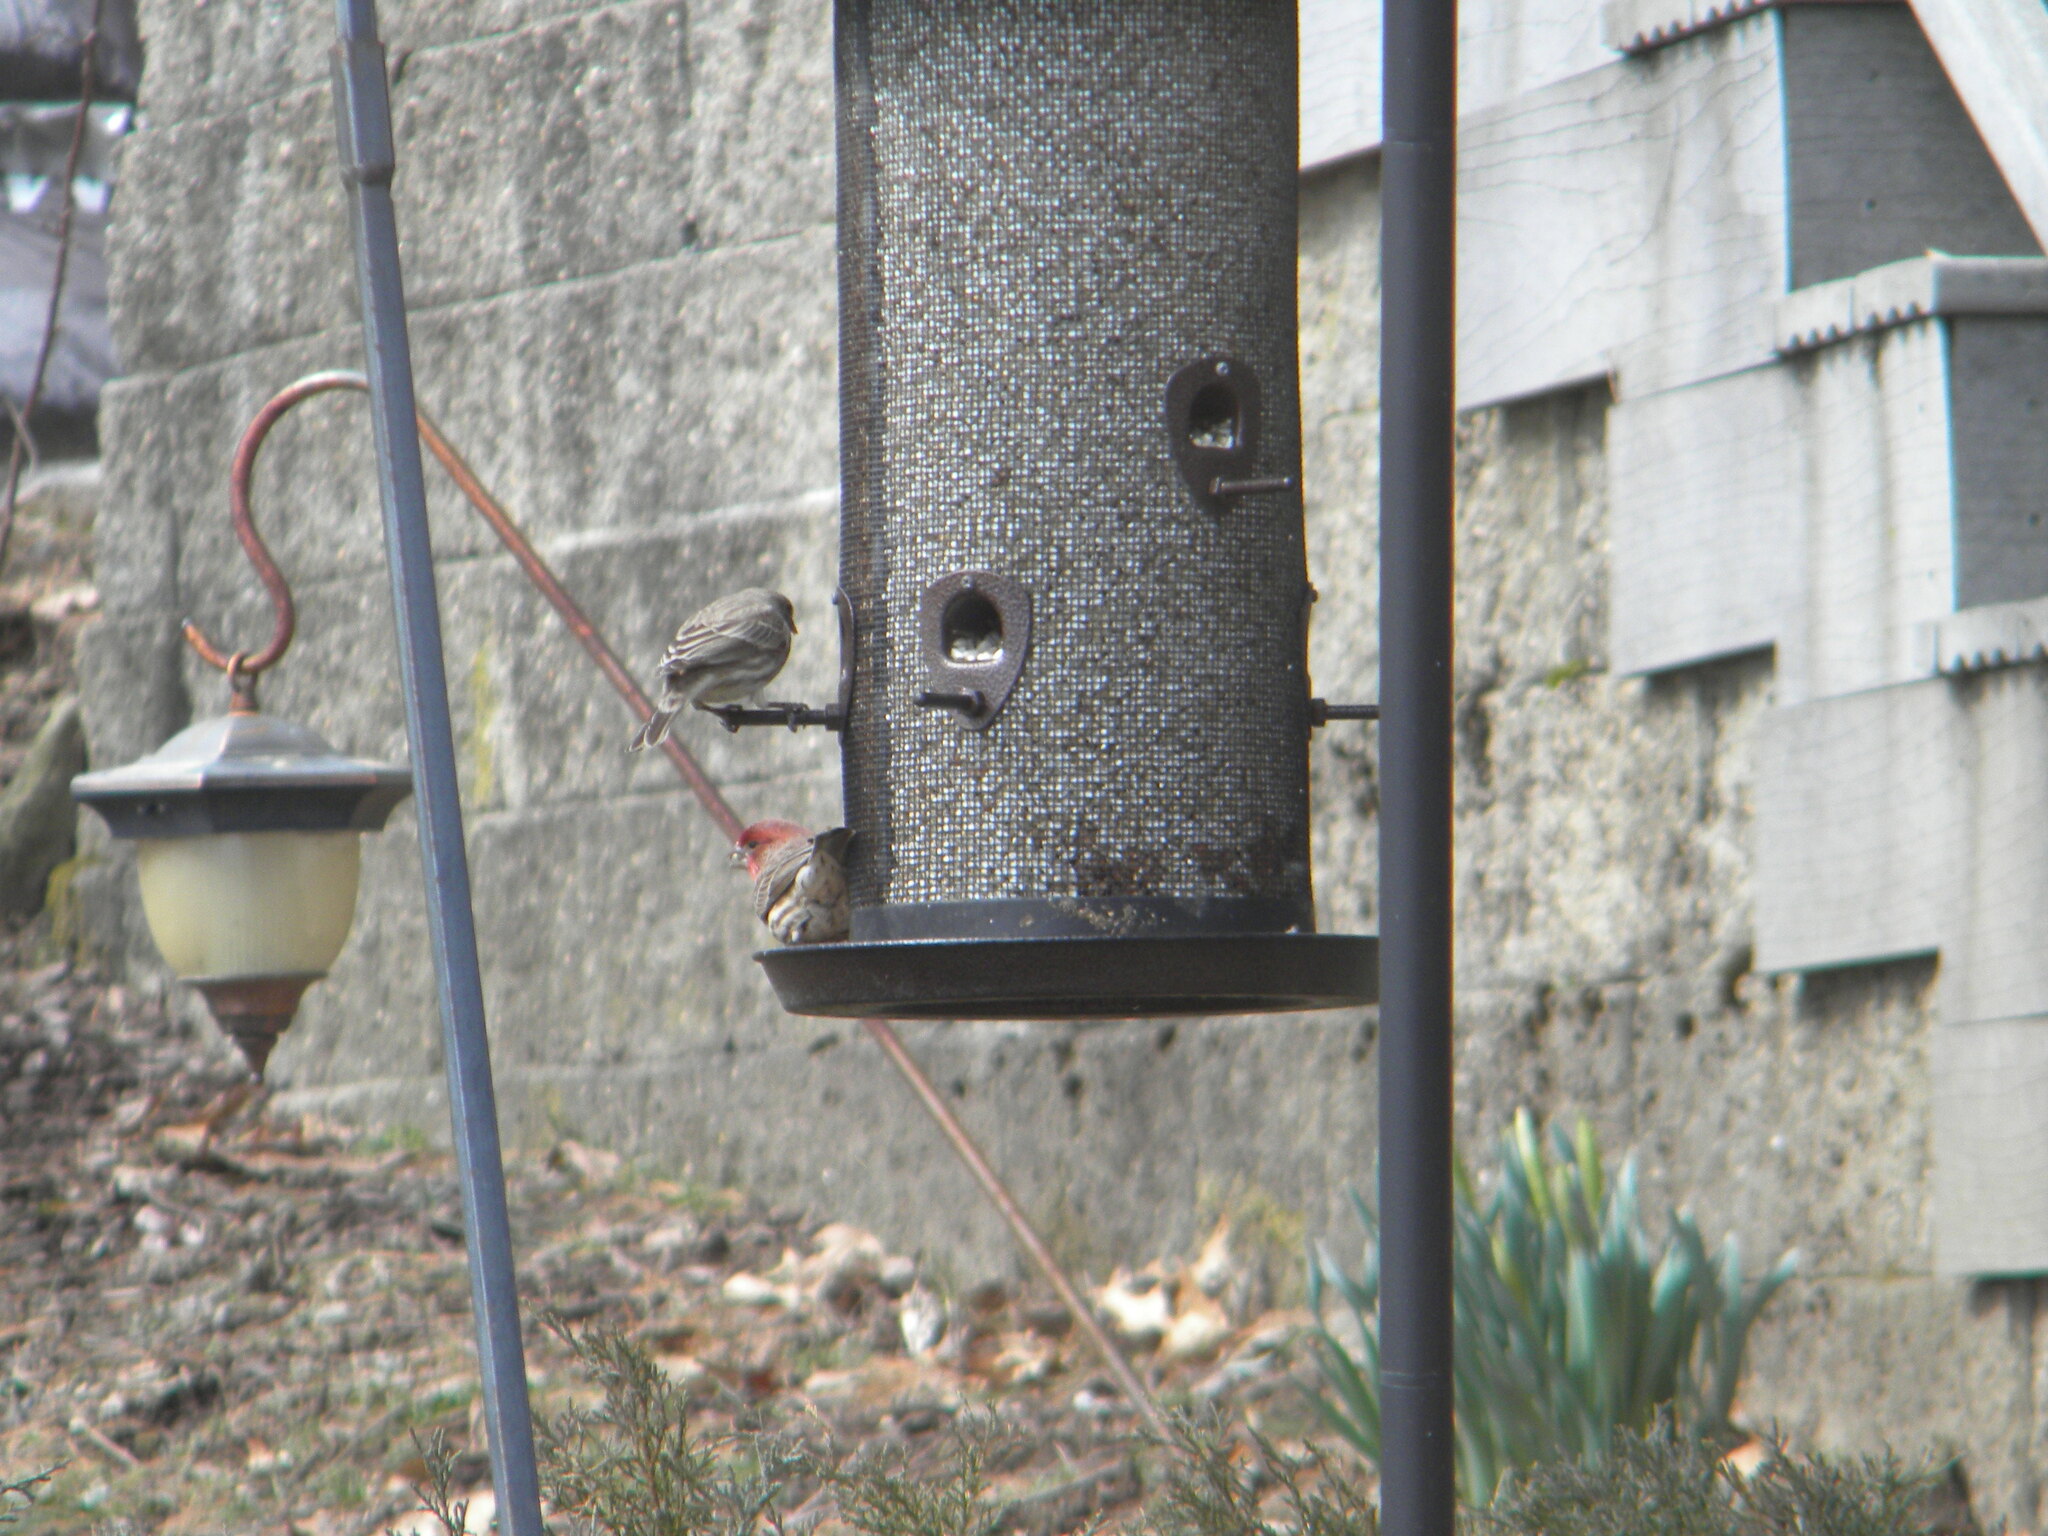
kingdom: Animalia
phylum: Chordata
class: Aves
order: Passeriformes
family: Fringillidae
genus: Haemorhous
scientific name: Haemorhous mexicanus
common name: House finch
